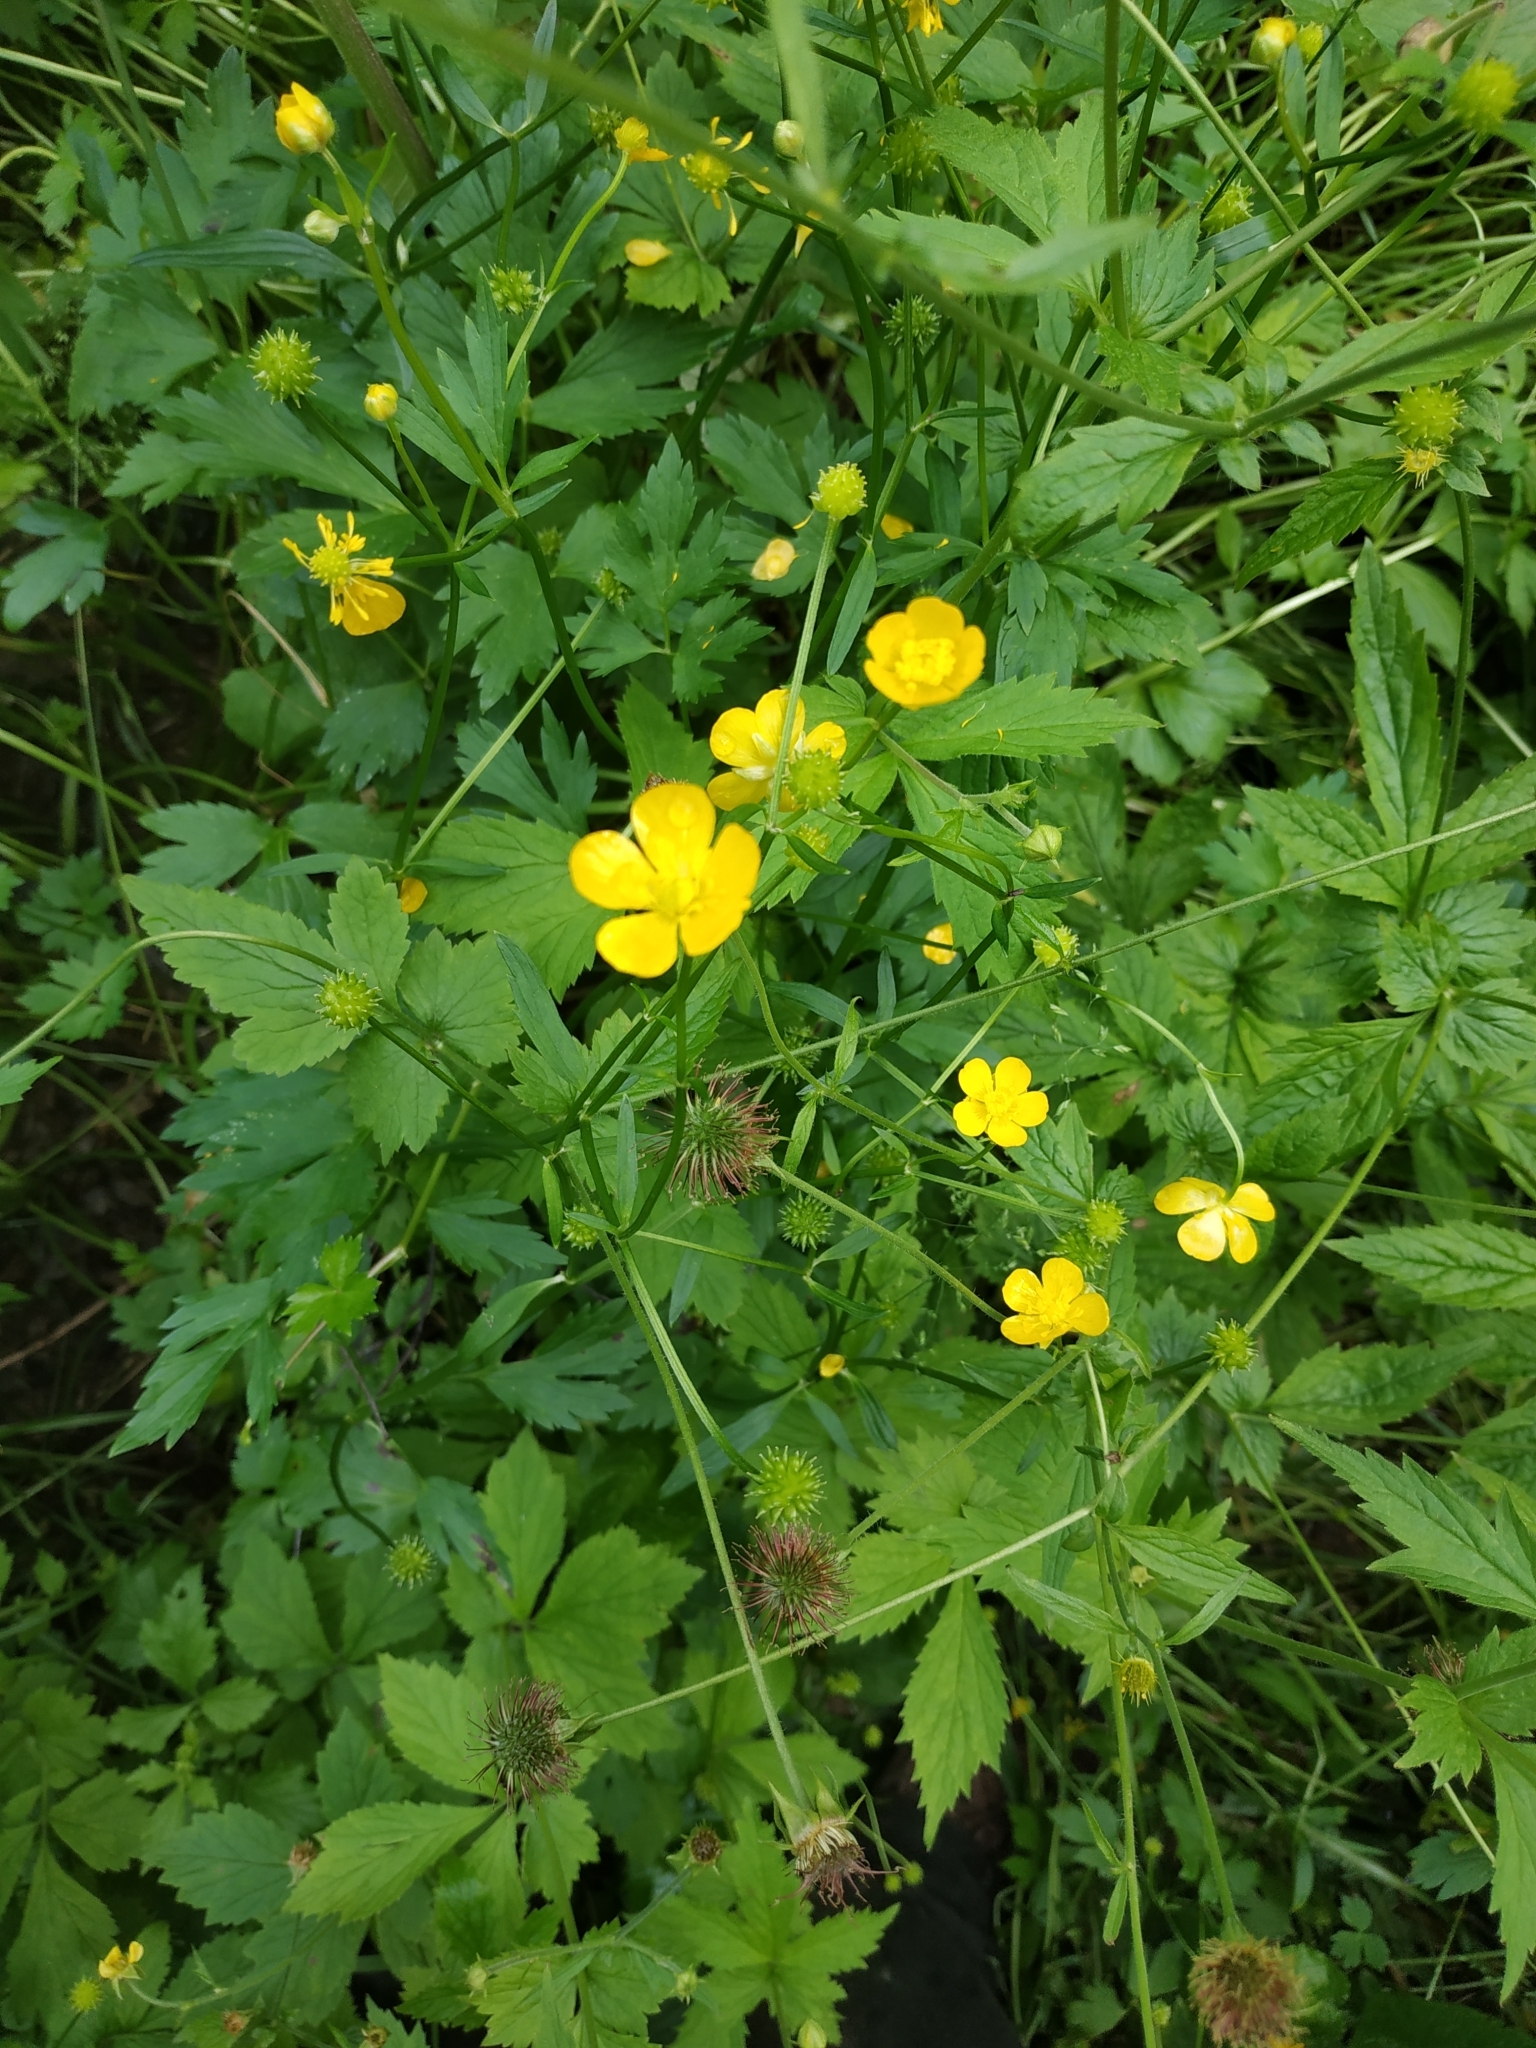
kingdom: Plantae
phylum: Tracheophyta
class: Magnoliopsida
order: Ranunculales
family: Ranunculaceae
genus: Ranunculus
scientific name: Ranunculus repens
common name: Creeping buttercup
